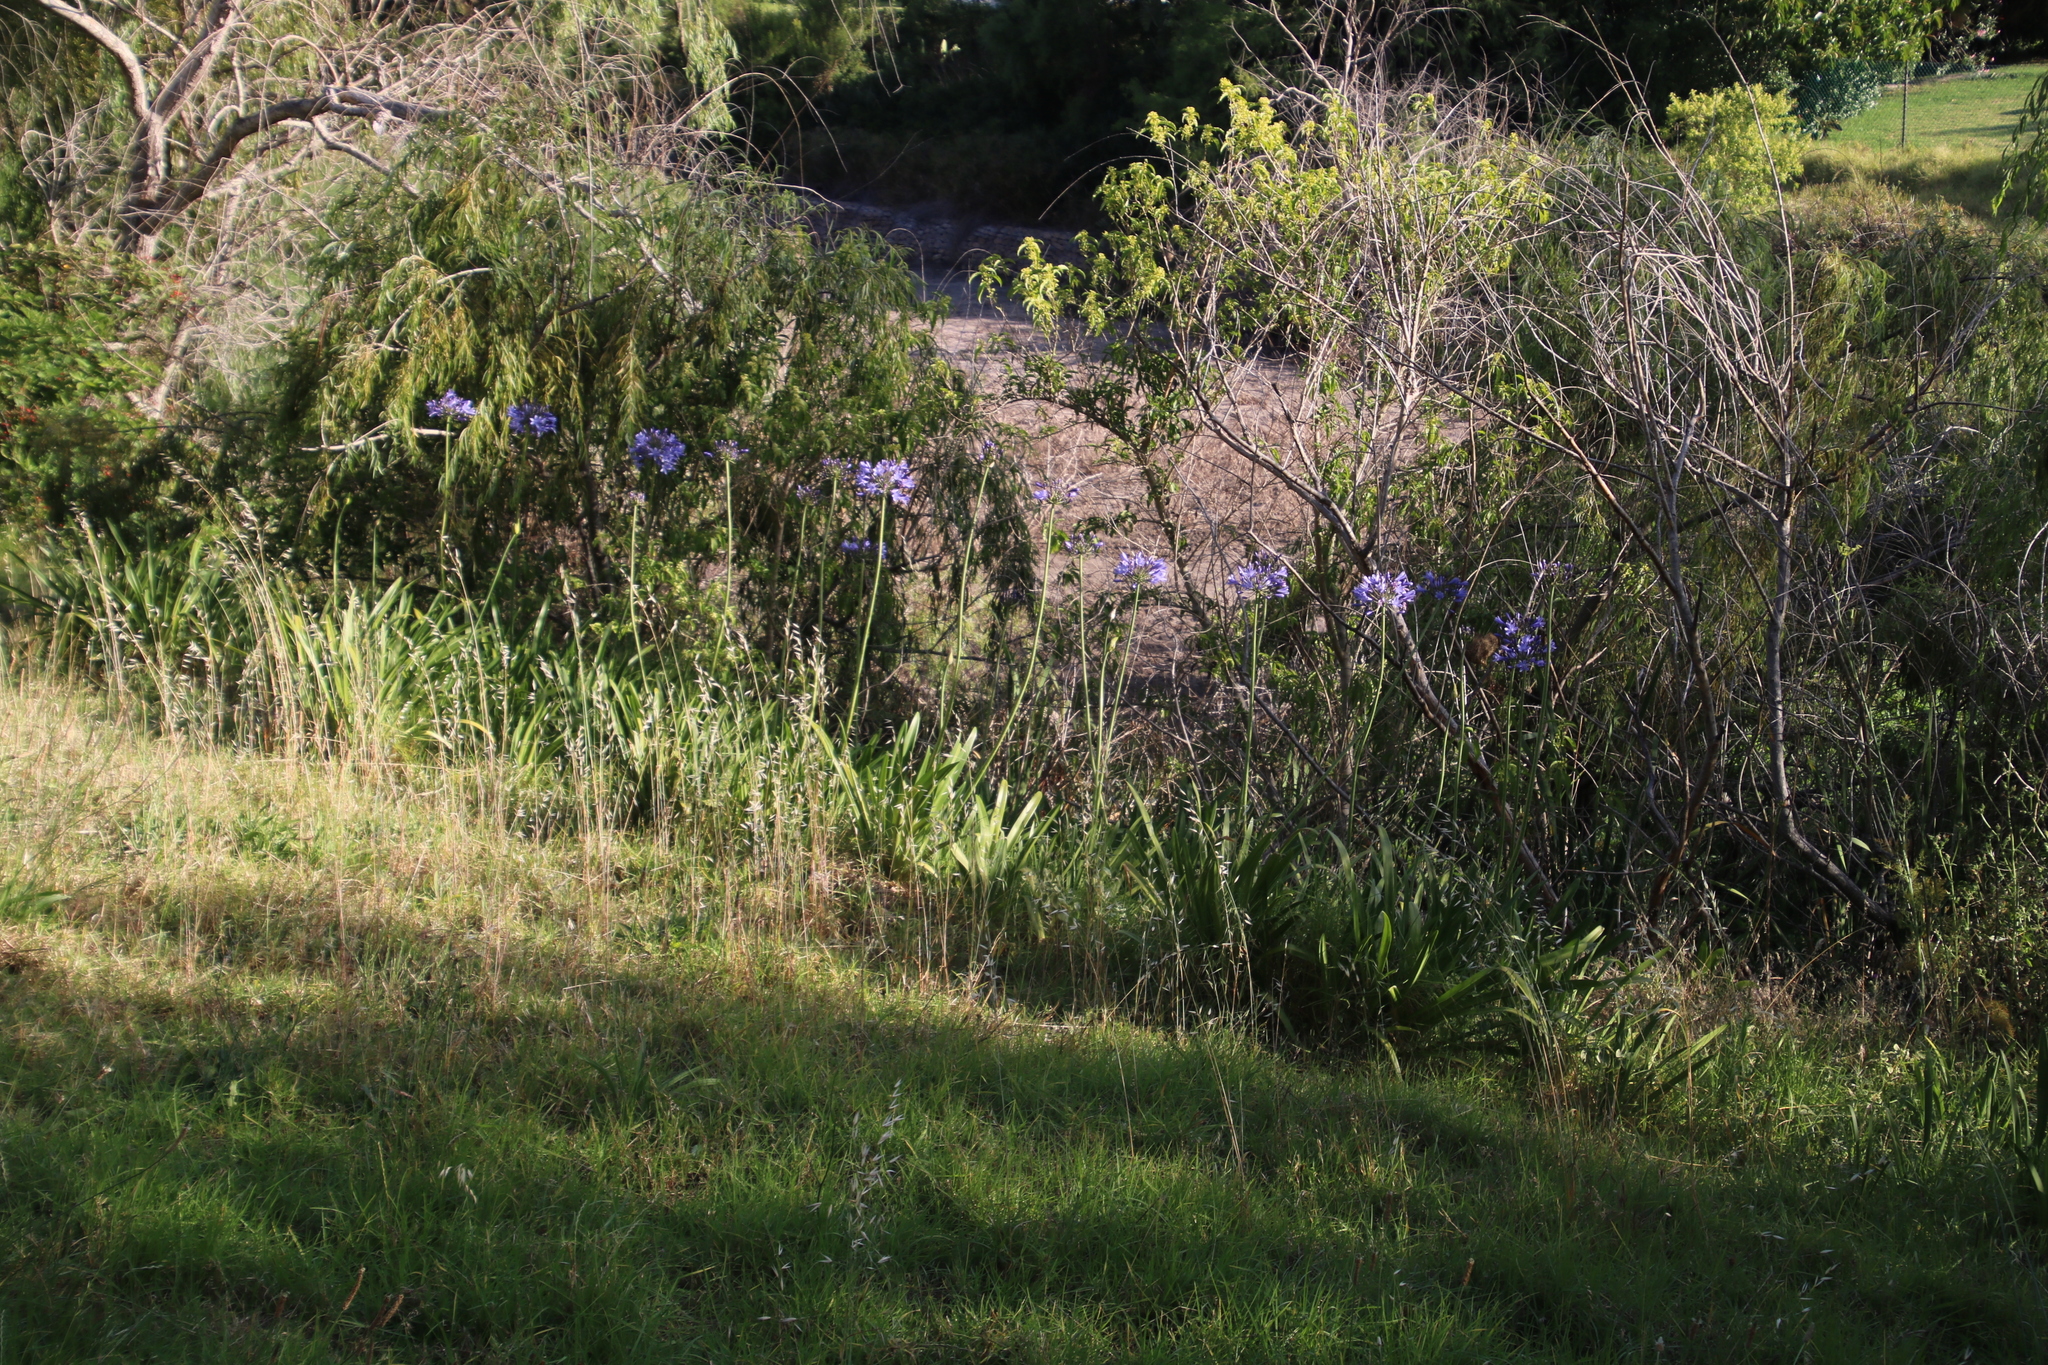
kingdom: Plantae
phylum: Tracheophyta
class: Liliopsida
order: Asparagales
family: Amaryllidaceae
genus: Agapanthus
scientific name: Agapanthus praecox
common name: African-lily
